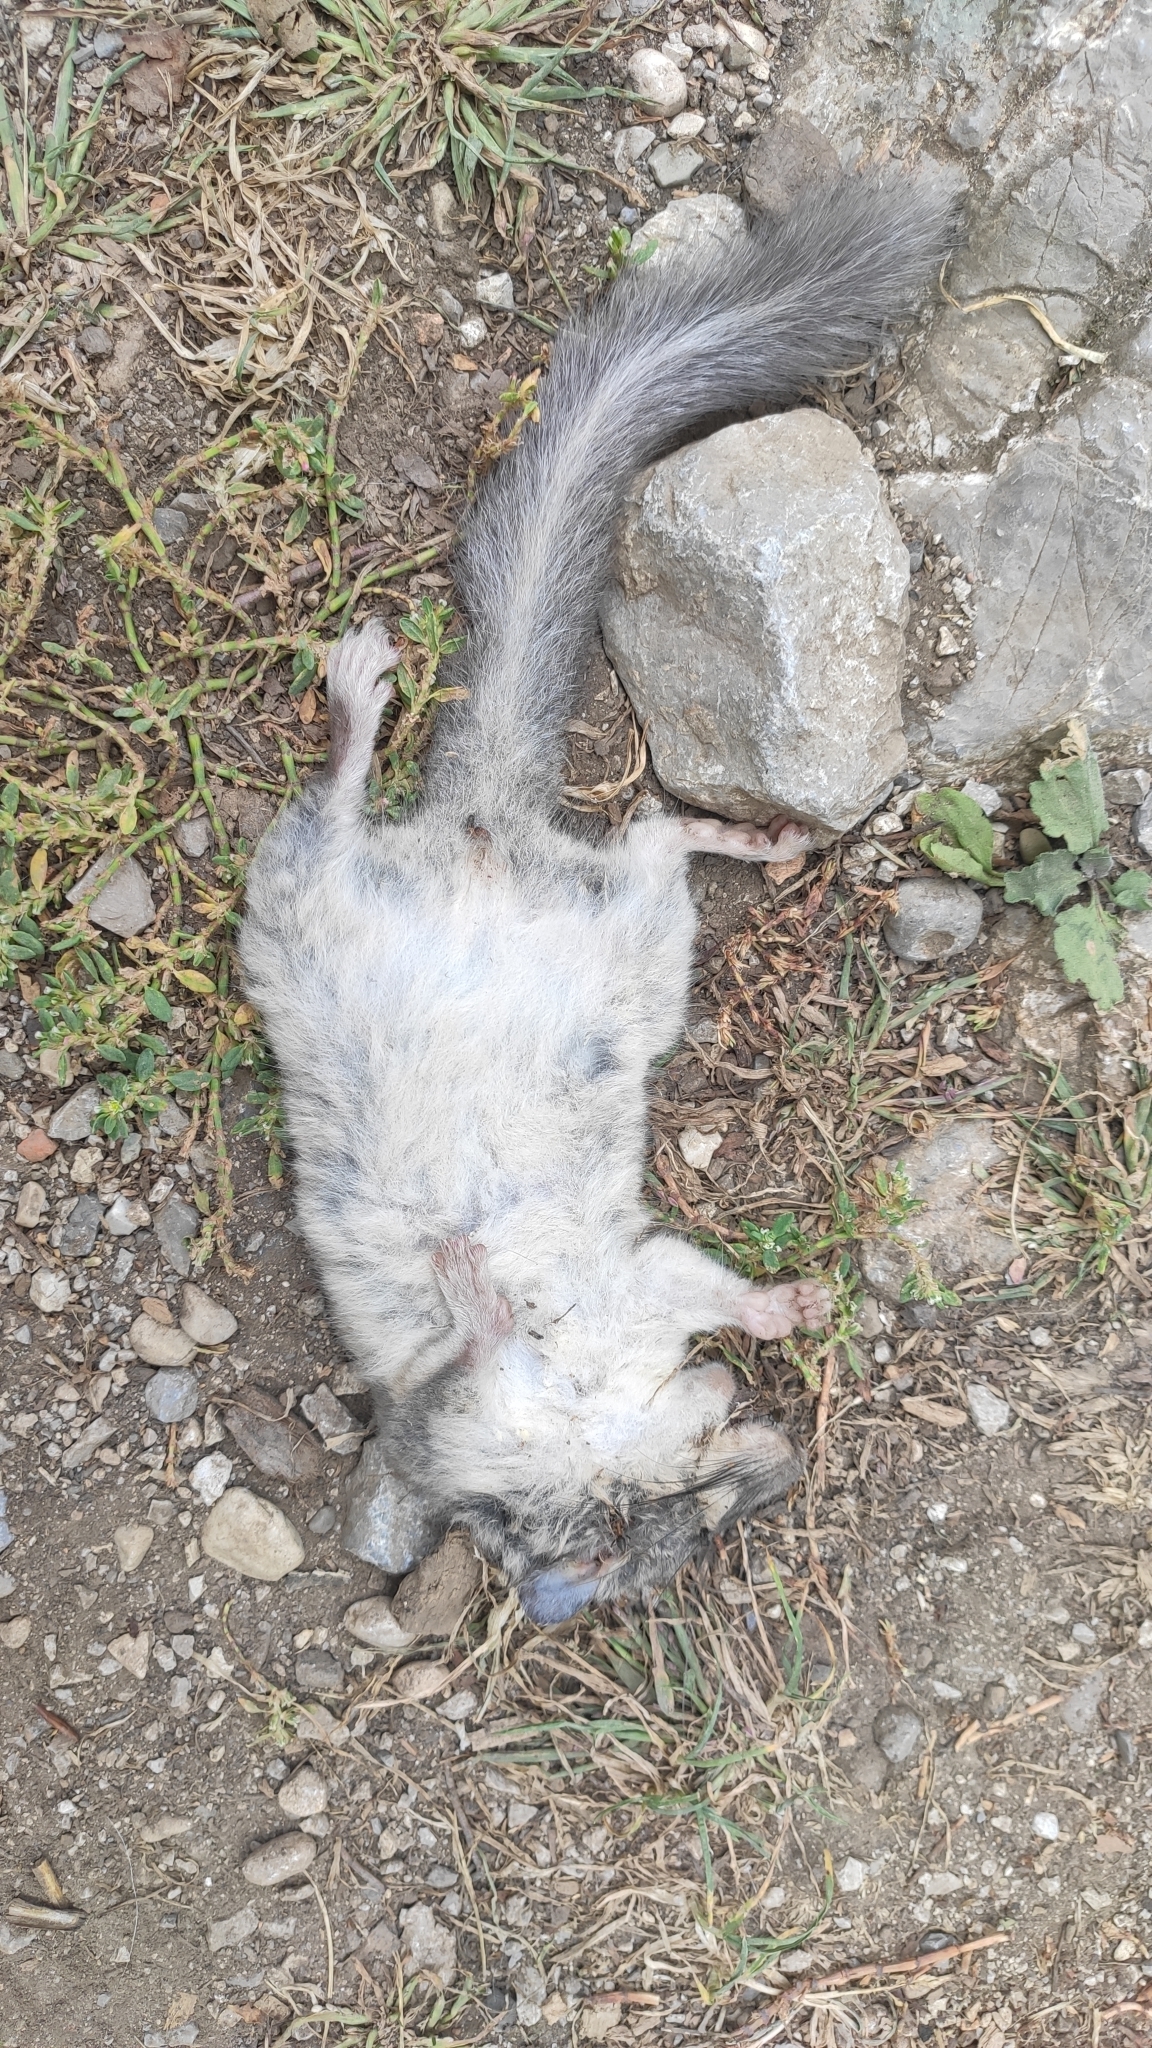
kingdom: Animalia
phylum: Chordata
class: Mammalia
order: Rodentia
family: Gliridae
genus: Glis
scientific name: Glis glis
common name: Fat dormouse
